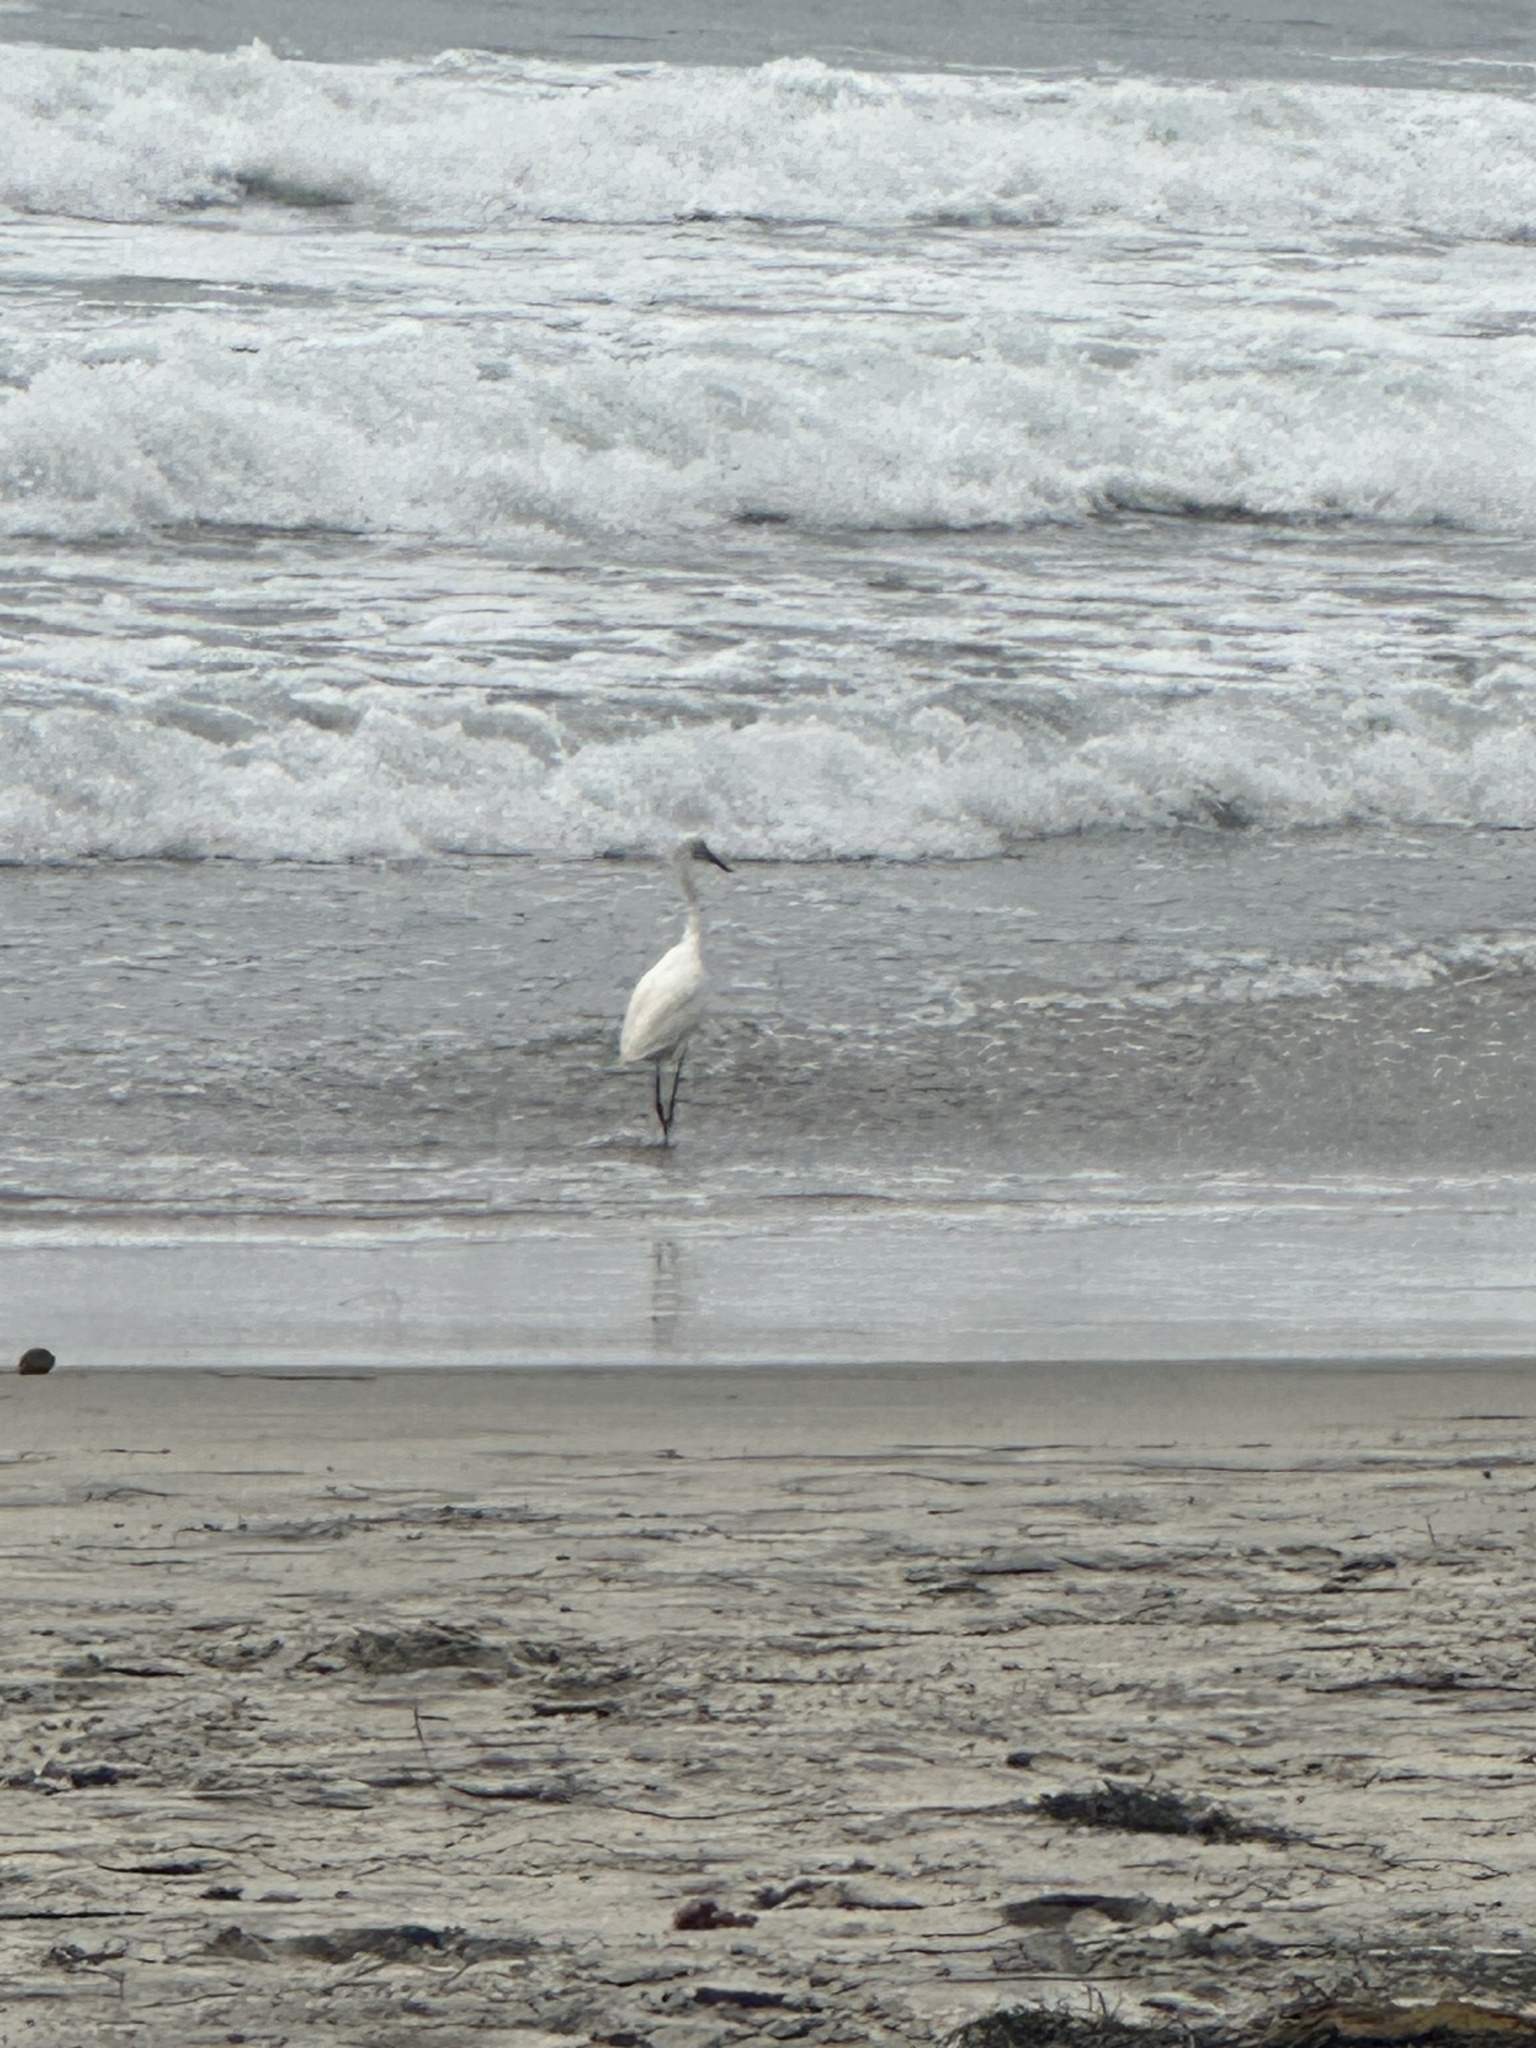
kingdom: Animalia
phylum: Chordata
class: Aves
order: Pelecaniformes
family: Ardeidae
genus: Egretta
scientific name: Egretta thula
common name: Snowy egret
